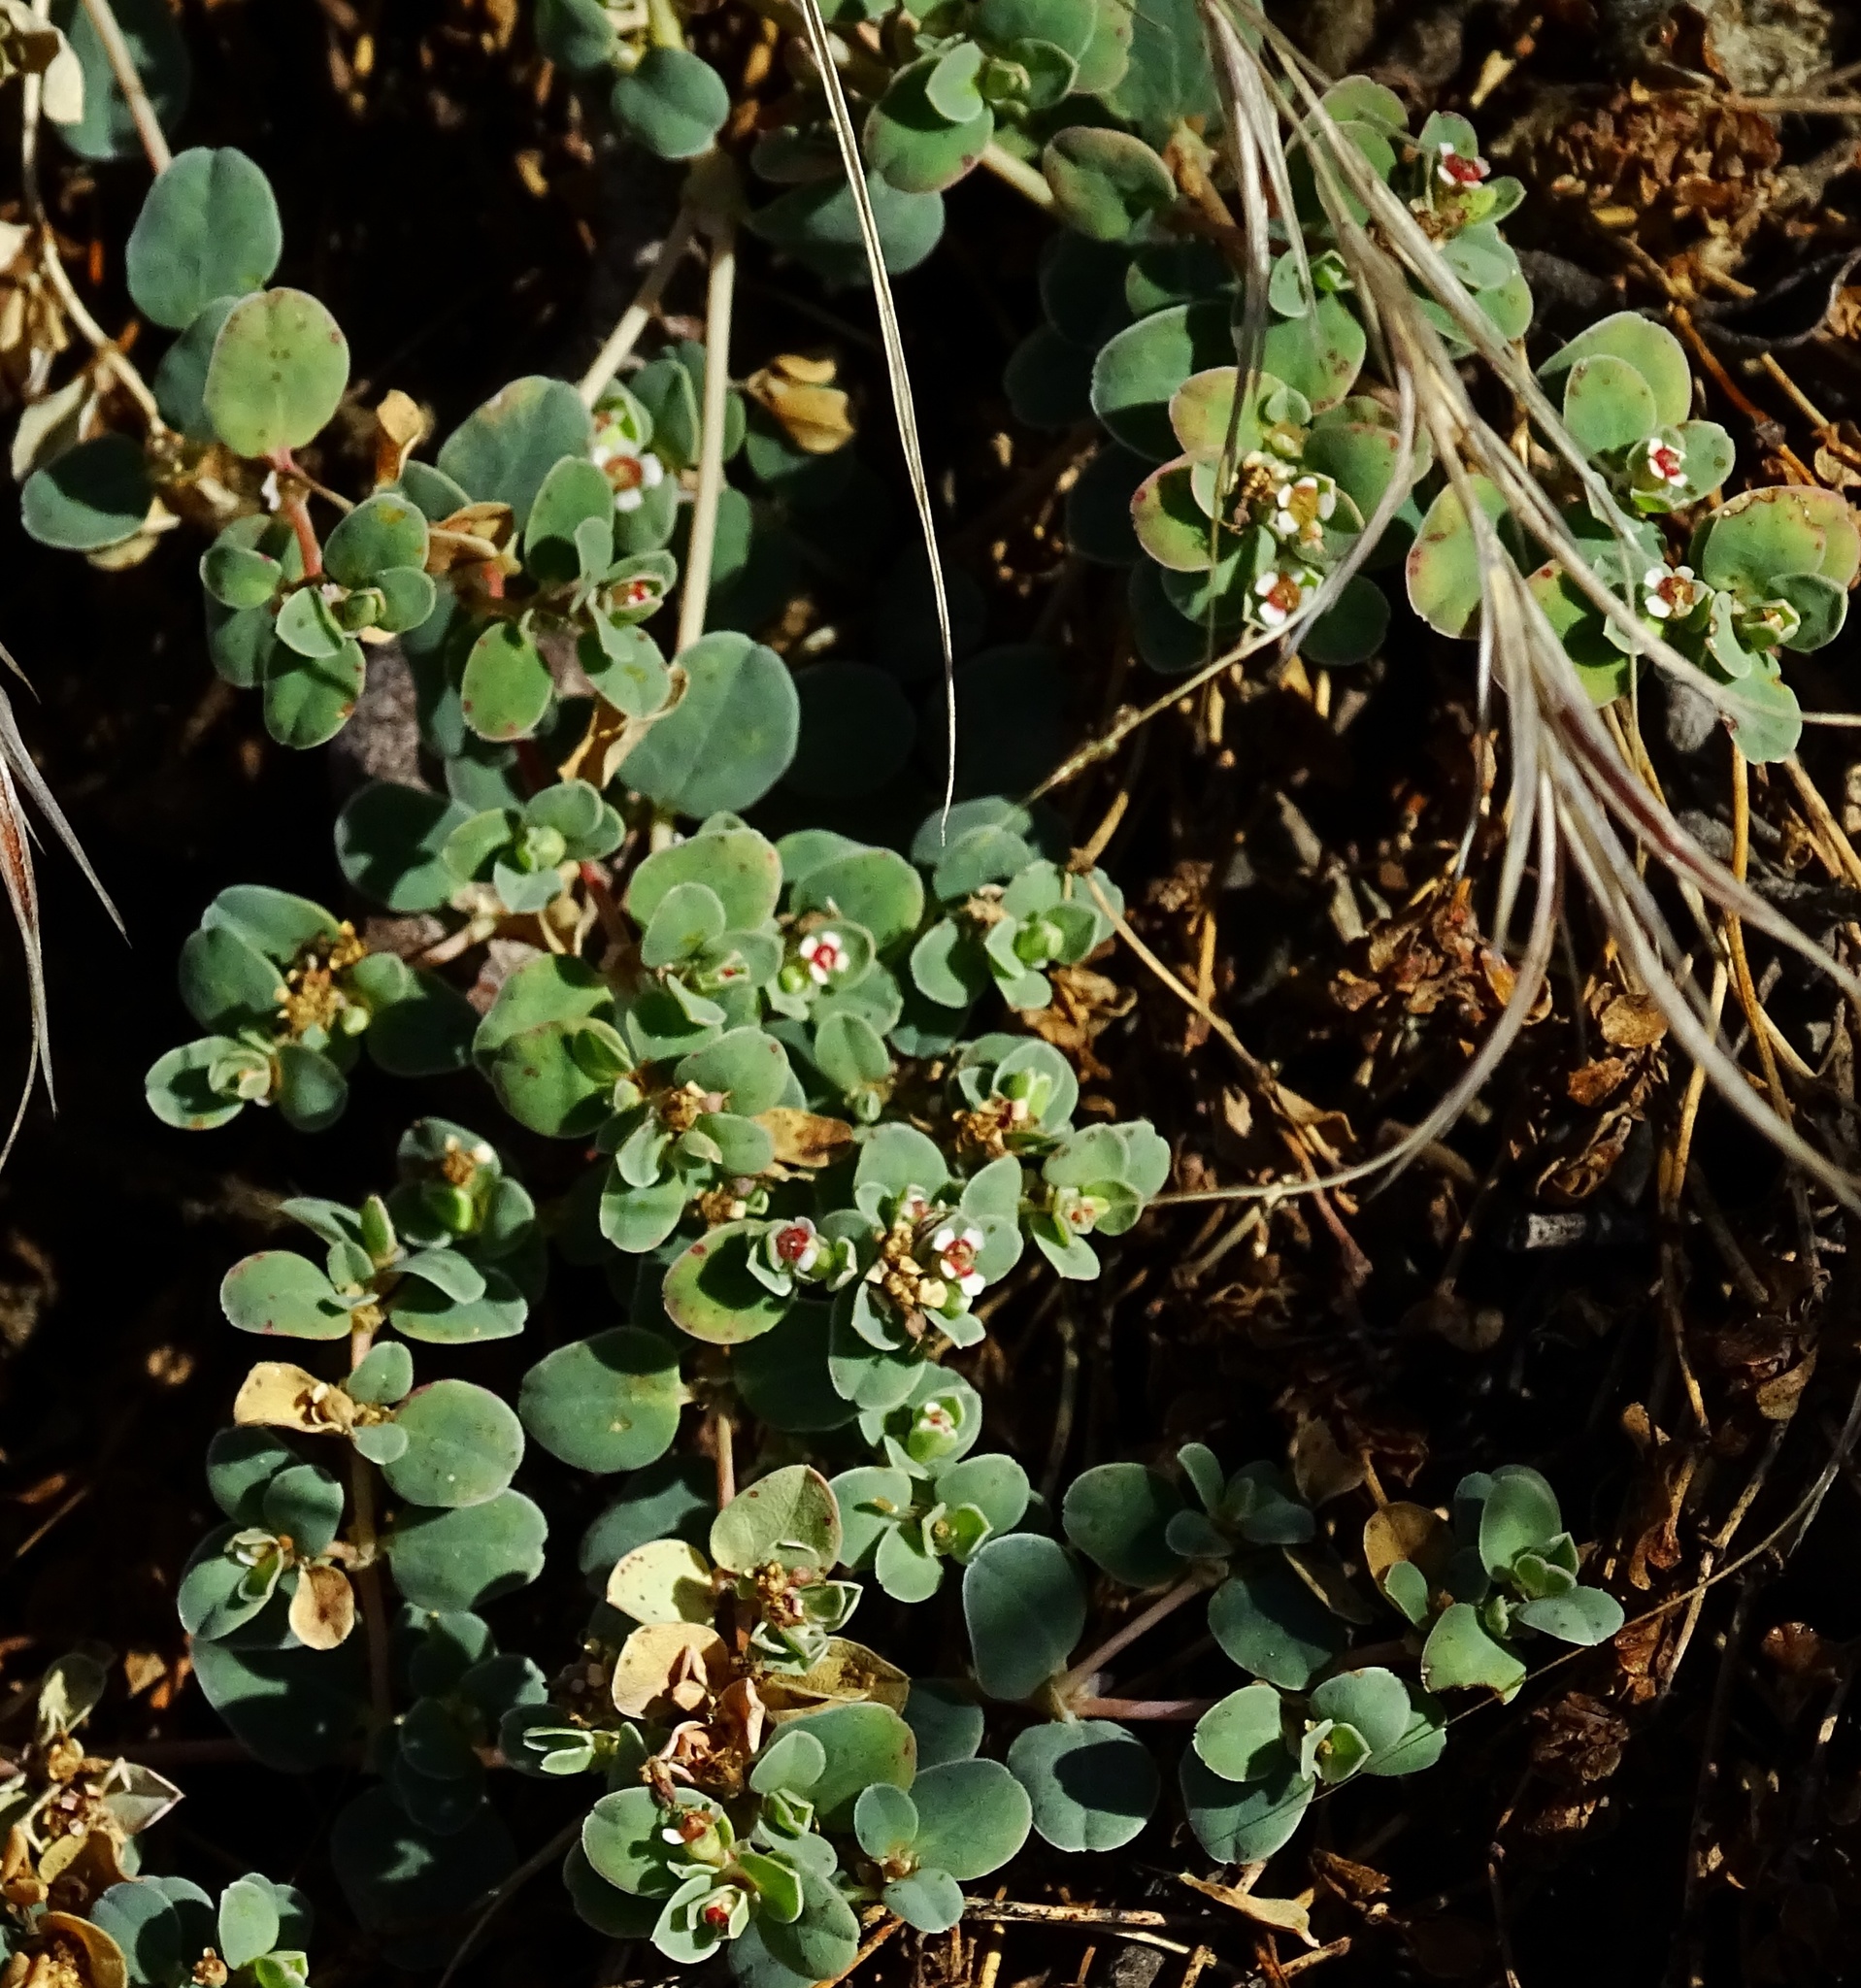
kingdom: Plantae
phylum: Tracheophyta
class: Magnoliopsida
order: Malpighiales
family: Euphorbiaceae
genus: Euphorbia
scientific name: Euphorbia albomarginata
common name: Whitemargin sandmat
